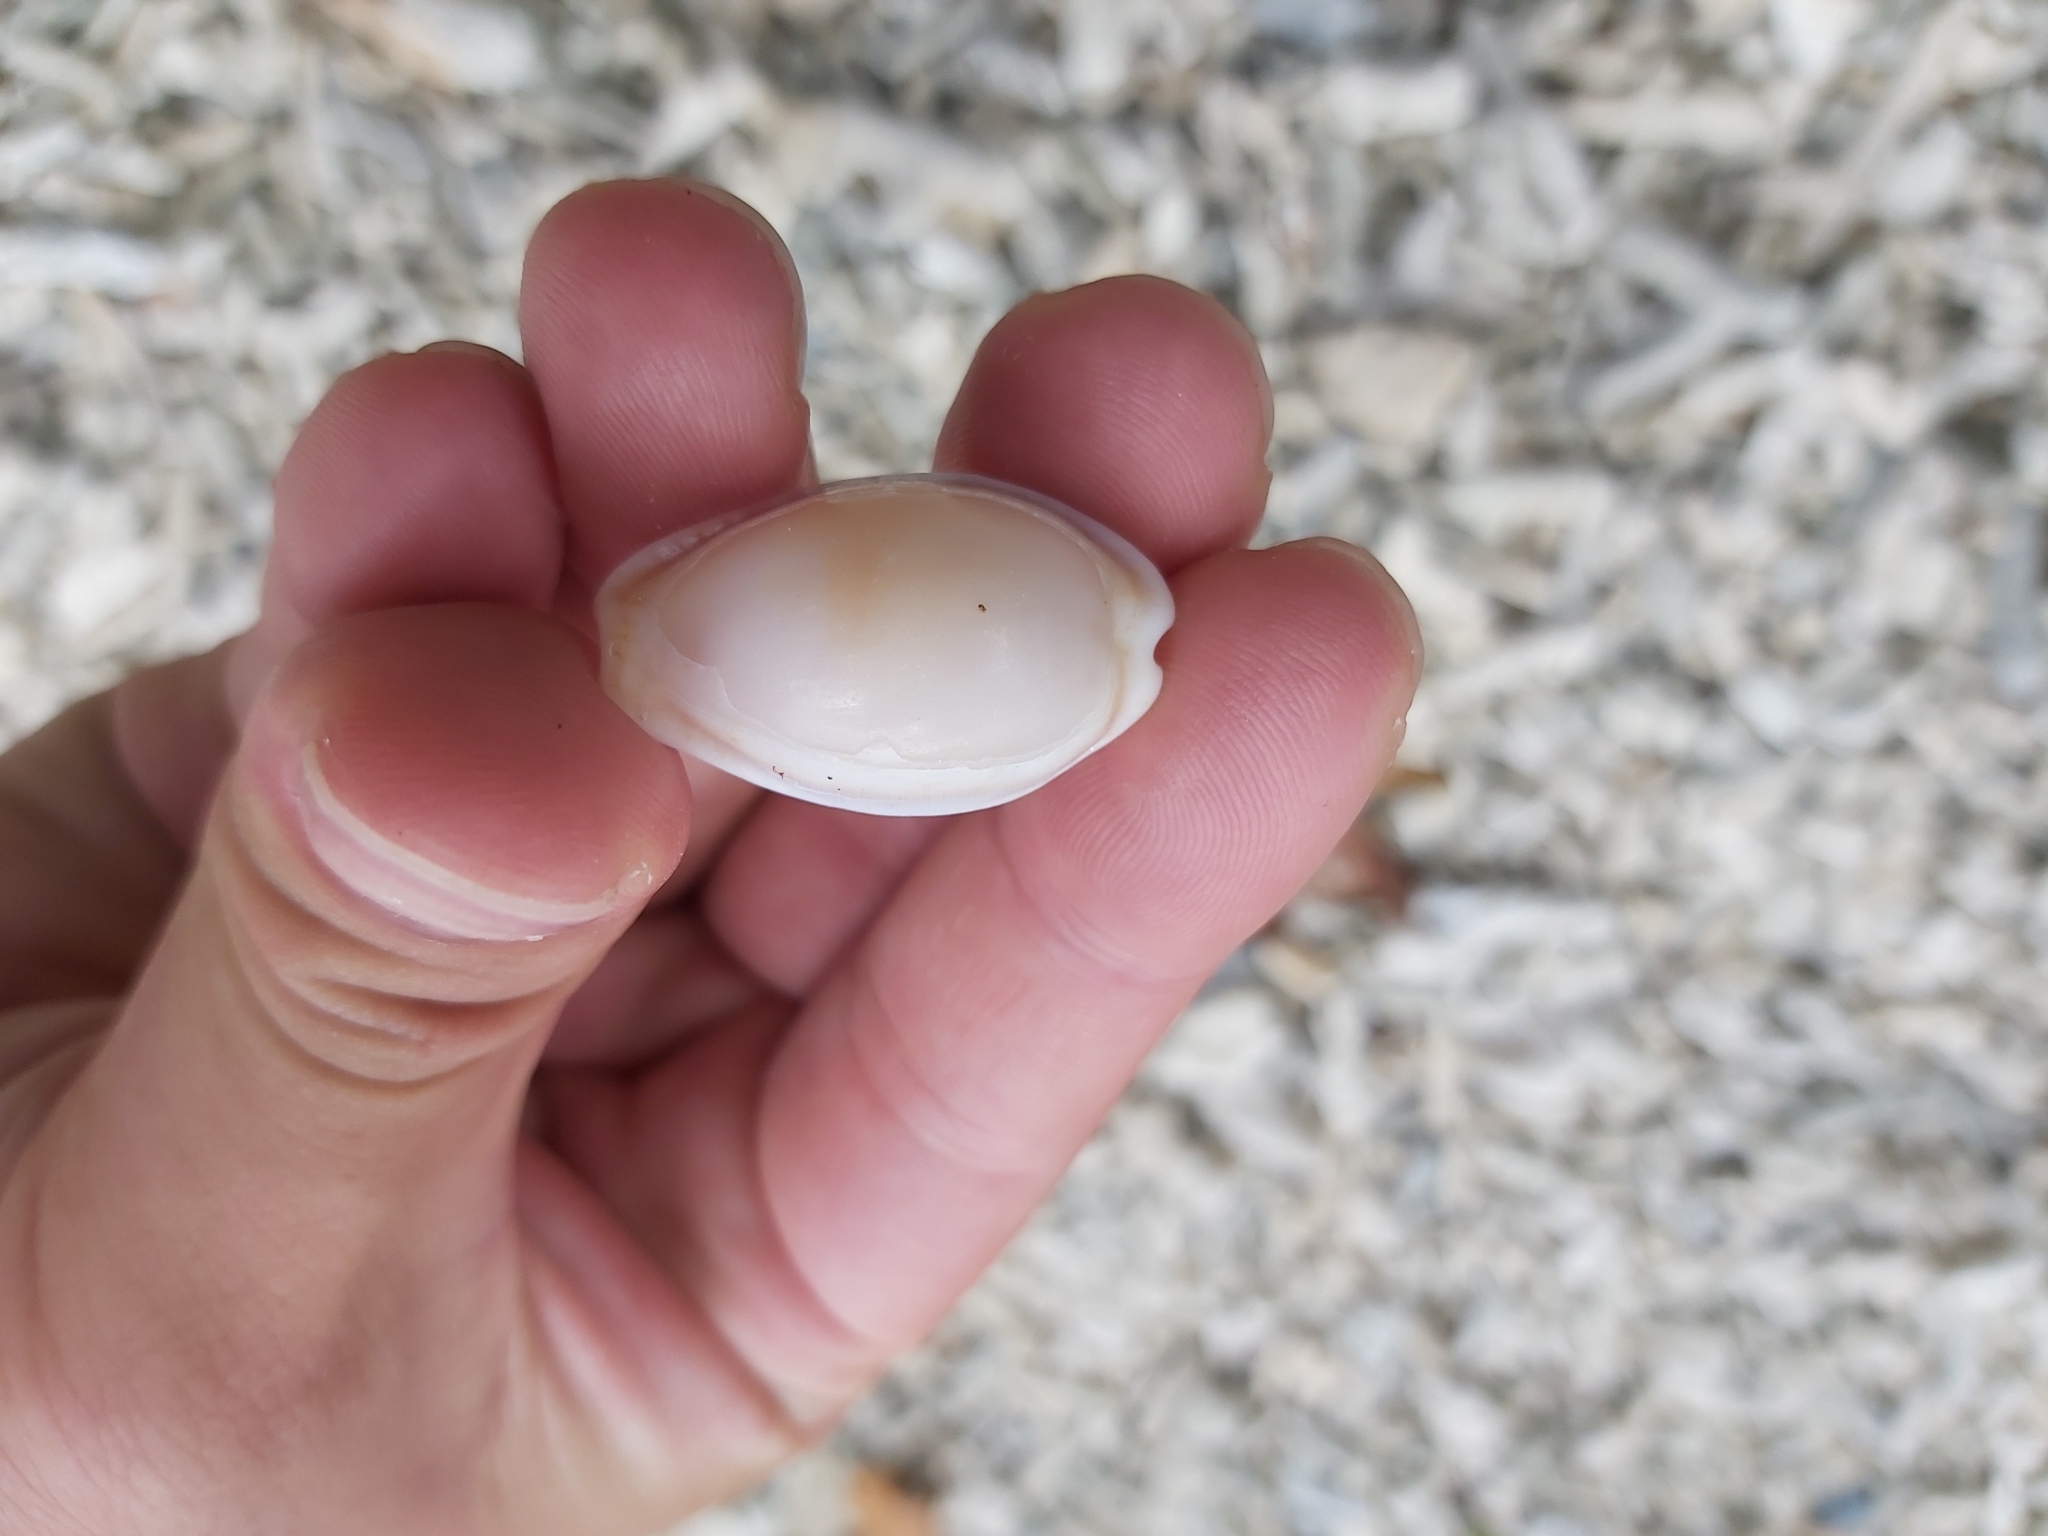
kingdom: Animalia
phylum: Mollusca
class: Gastropoda
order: Littorinimorpha
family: Cypraeidae
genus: Naria
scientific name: Naria erosa
